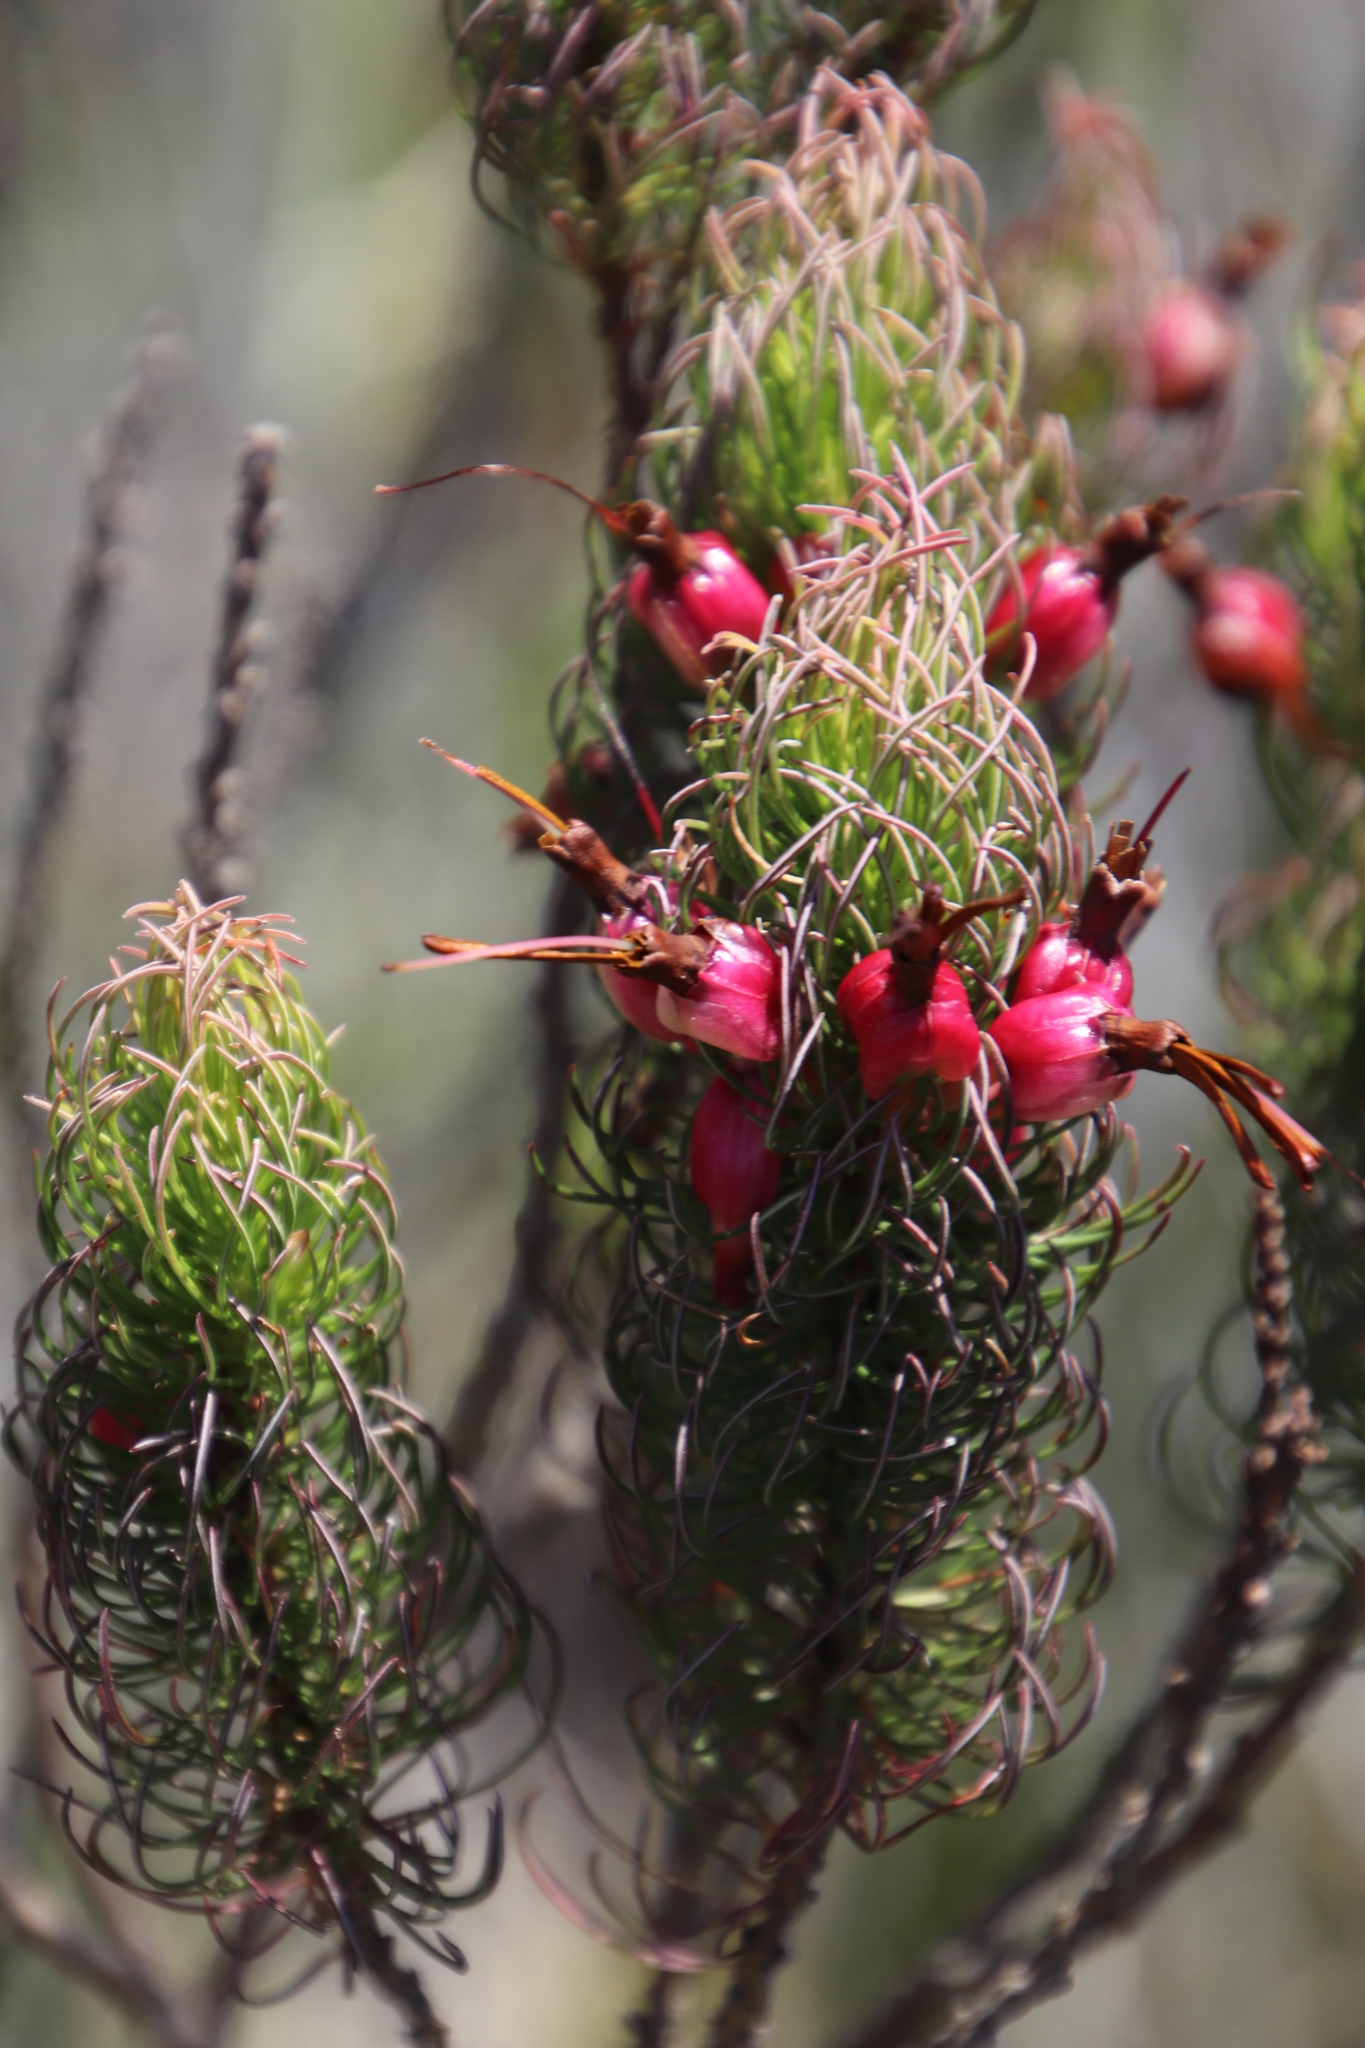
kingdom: Plantae
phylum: Tracheophyta
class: Magnoliopsida
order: Ericales
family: Ericaceae
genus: Erica
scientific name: Erica plukenetii
